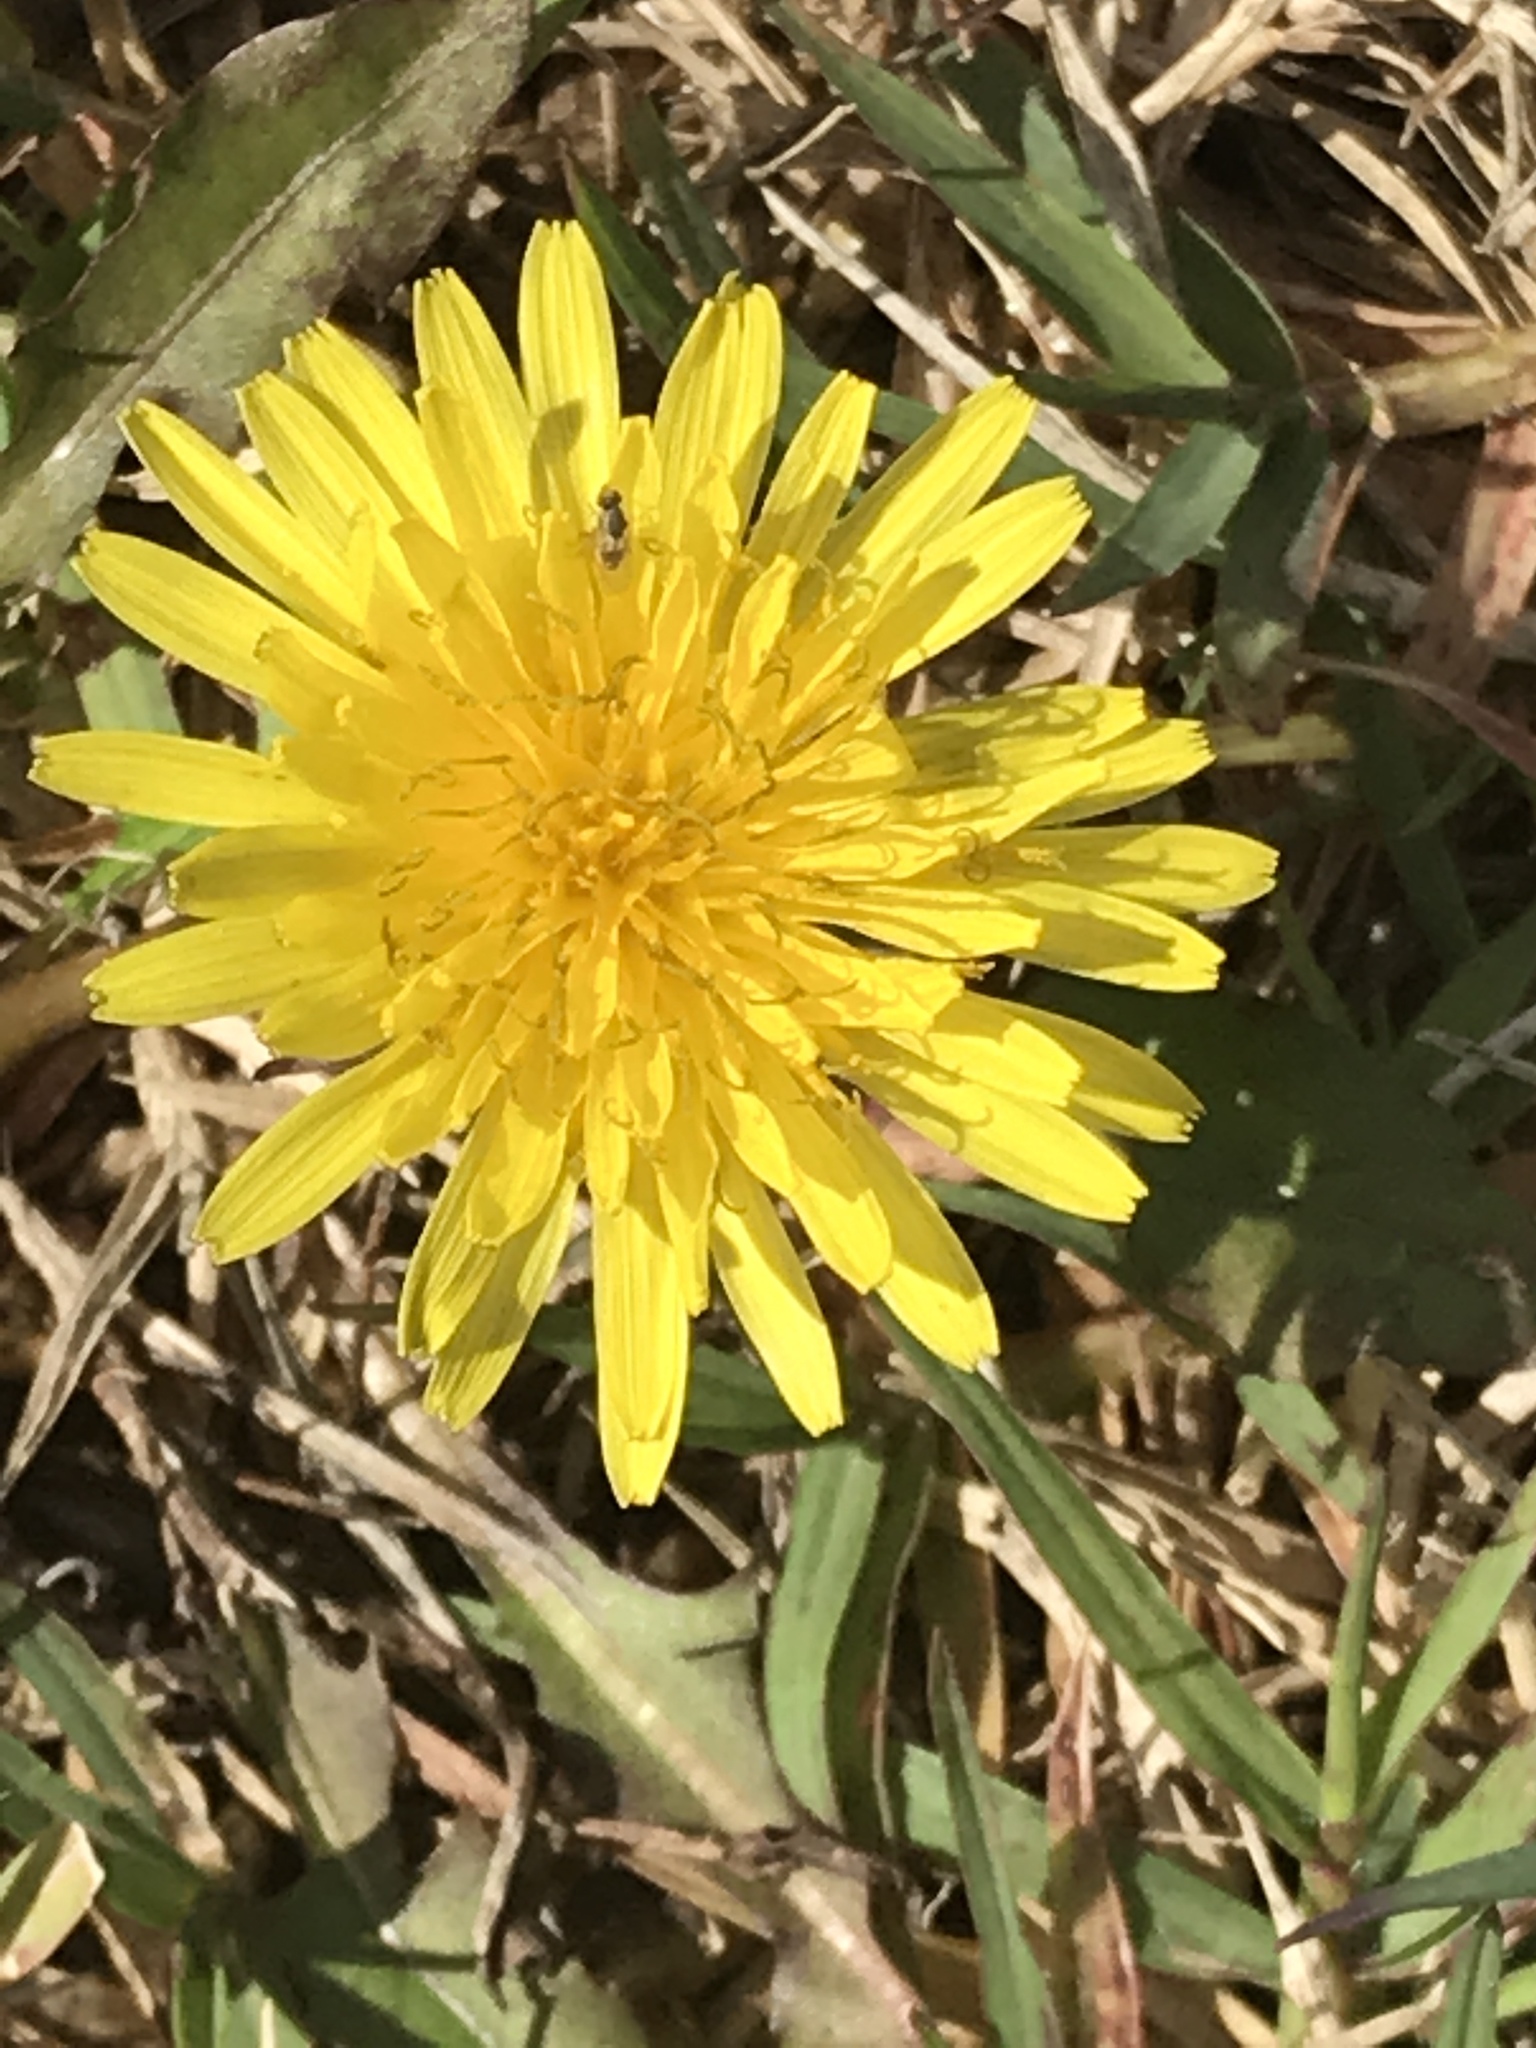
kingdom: Plantae
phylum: Tracheophyta
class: Magnoliopsida
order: Asterales
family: Asteraceae
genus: Taraxacum
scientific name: Taraxacum officinale
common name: Common dandelion
